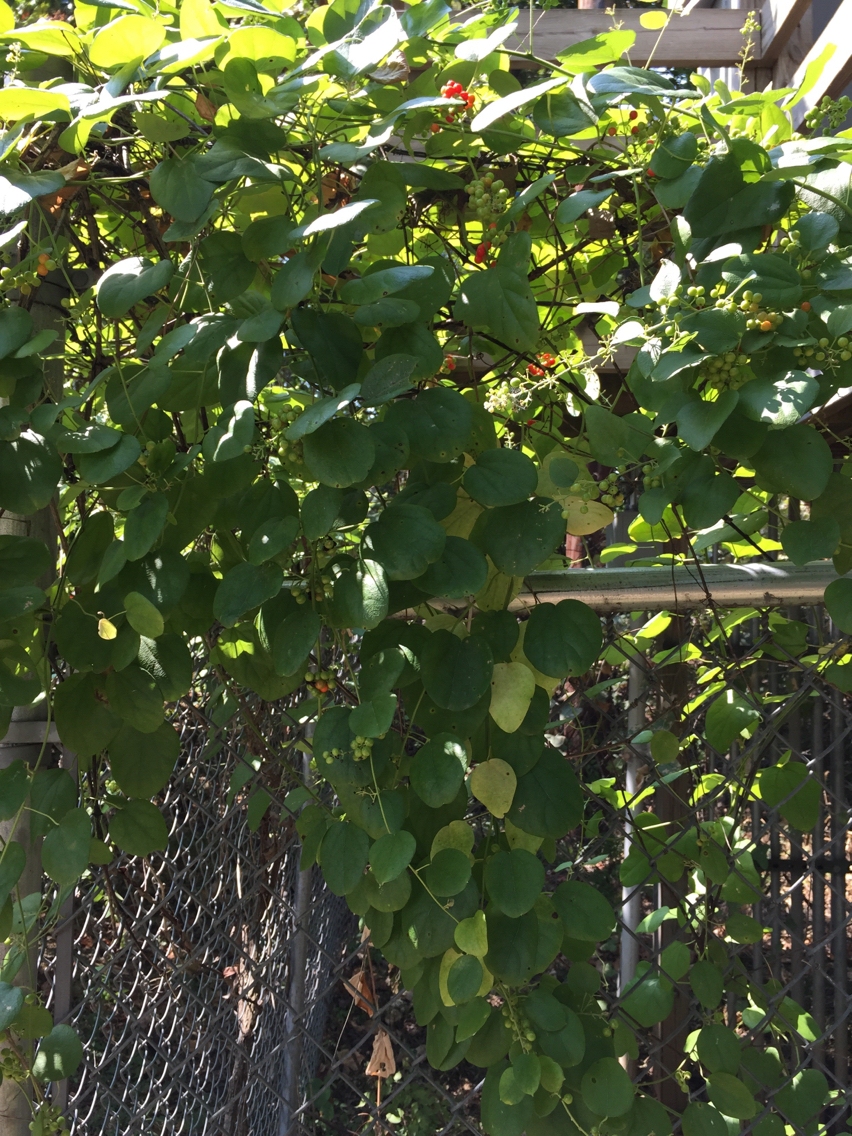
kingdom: Plantae
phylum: Tracheophyta
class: Magnoliopsida
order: Ranunculales
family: Menispermaceae
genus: Cocculus
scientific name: Cocculus carolinus
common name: Carolina moonseed
